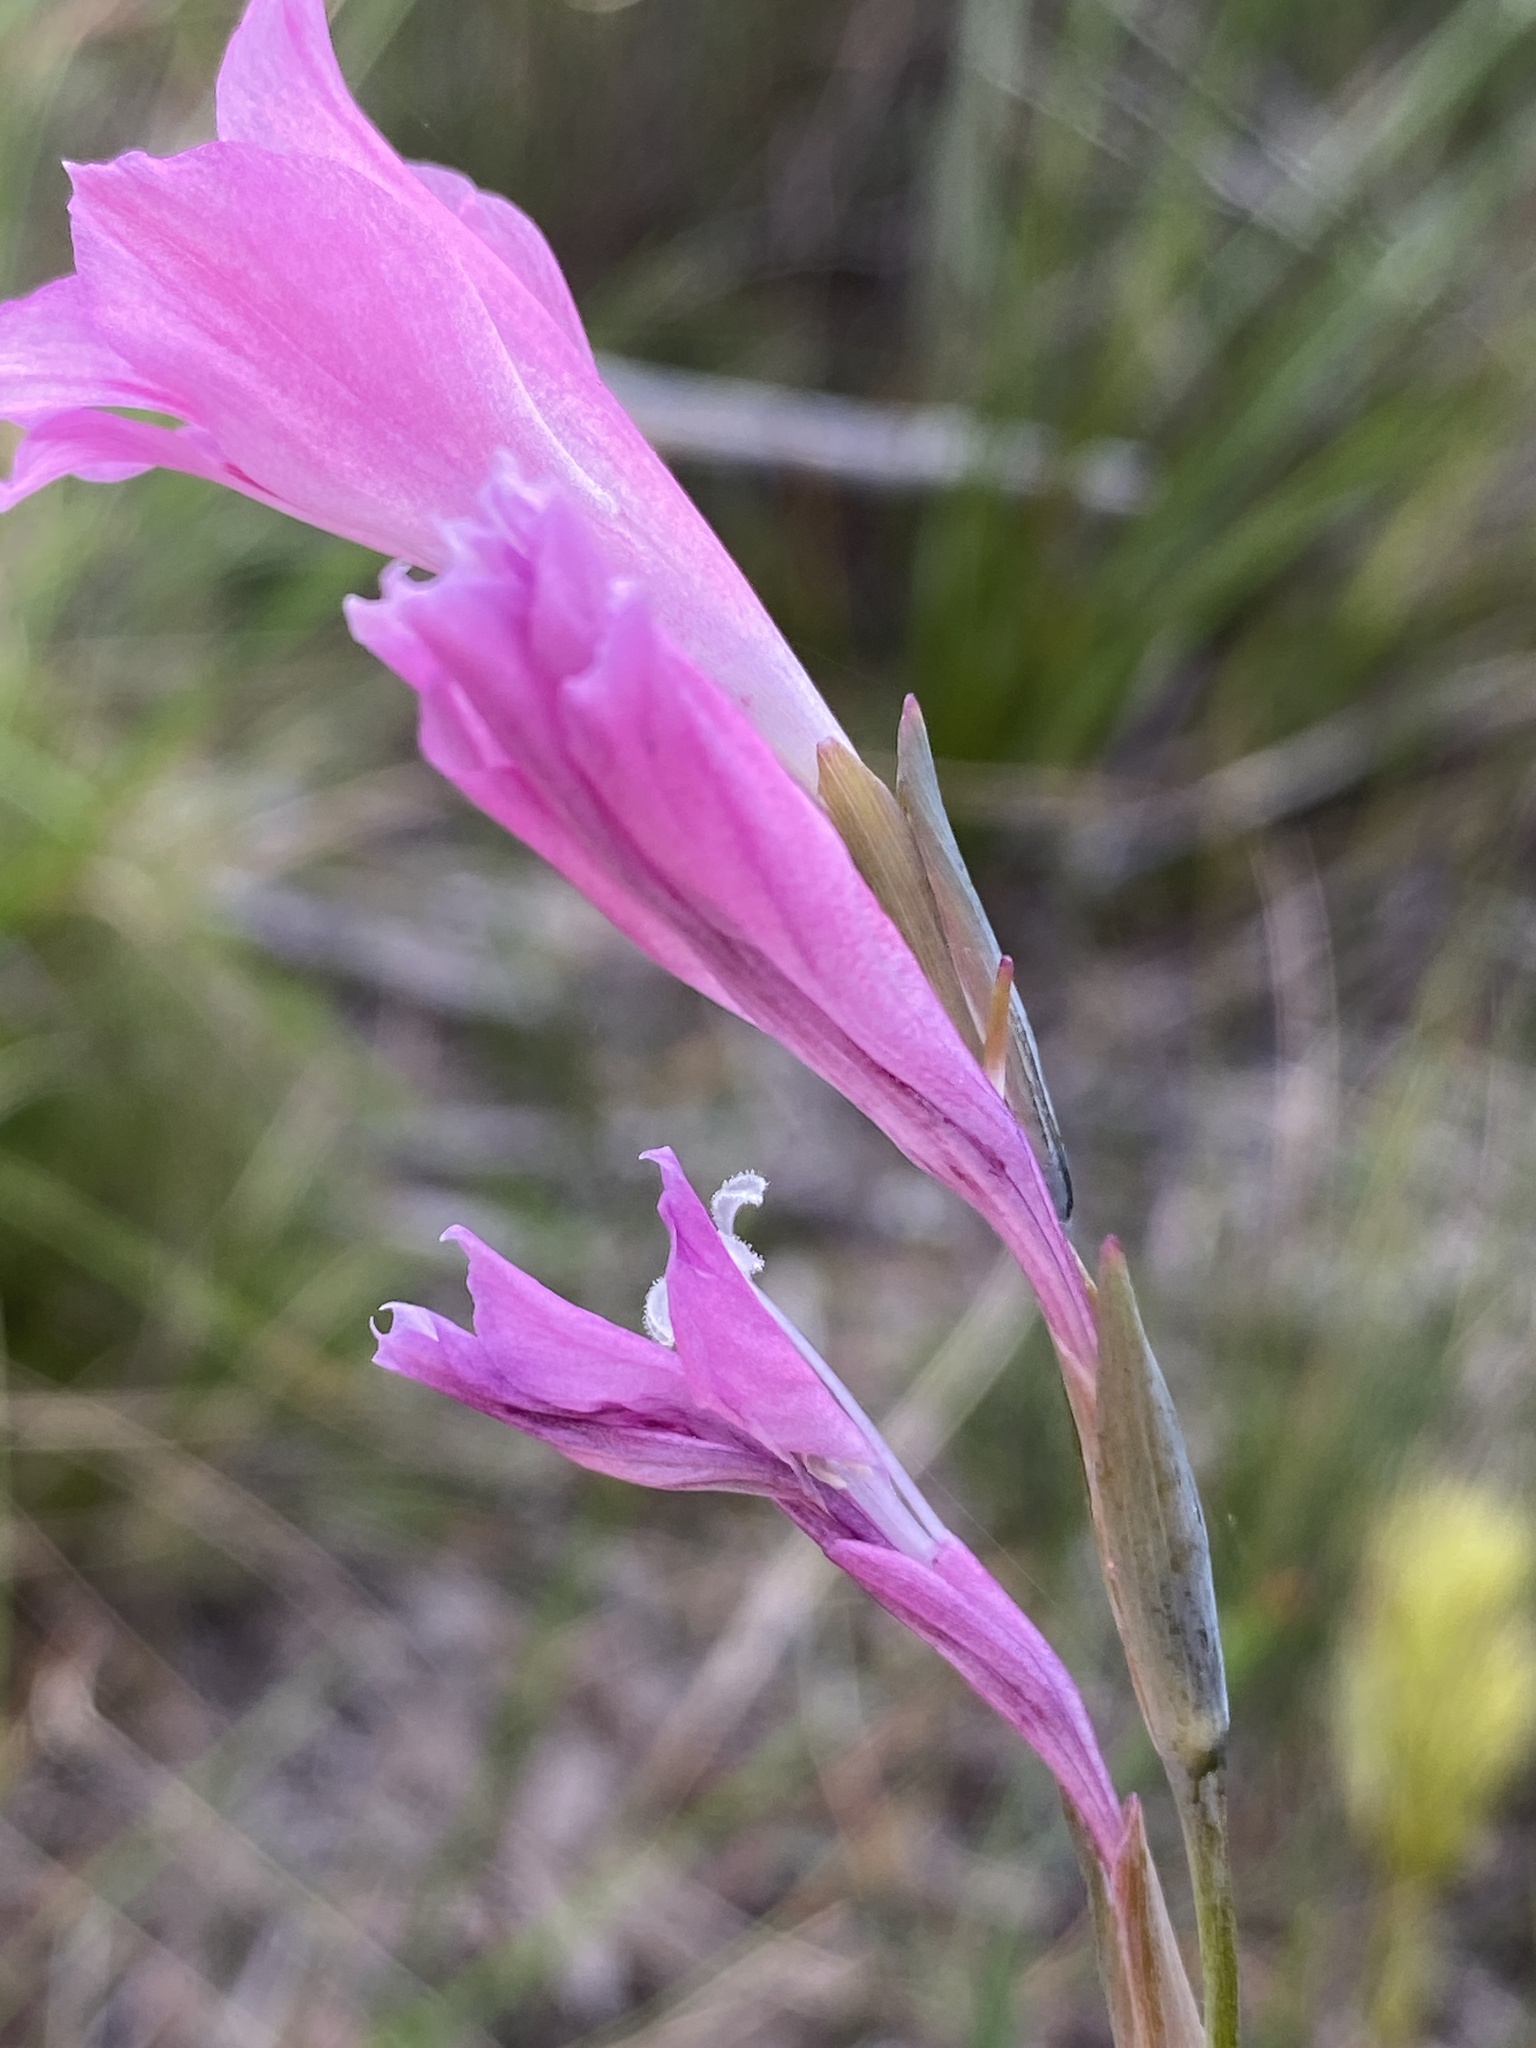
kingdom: Plantae
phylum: Tracheophyta
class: Liliopsida
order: Asparagales
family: Iridaceae
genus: Gladiolus
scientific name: Gladiolus hirsutus
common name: Small pink afrikaner
